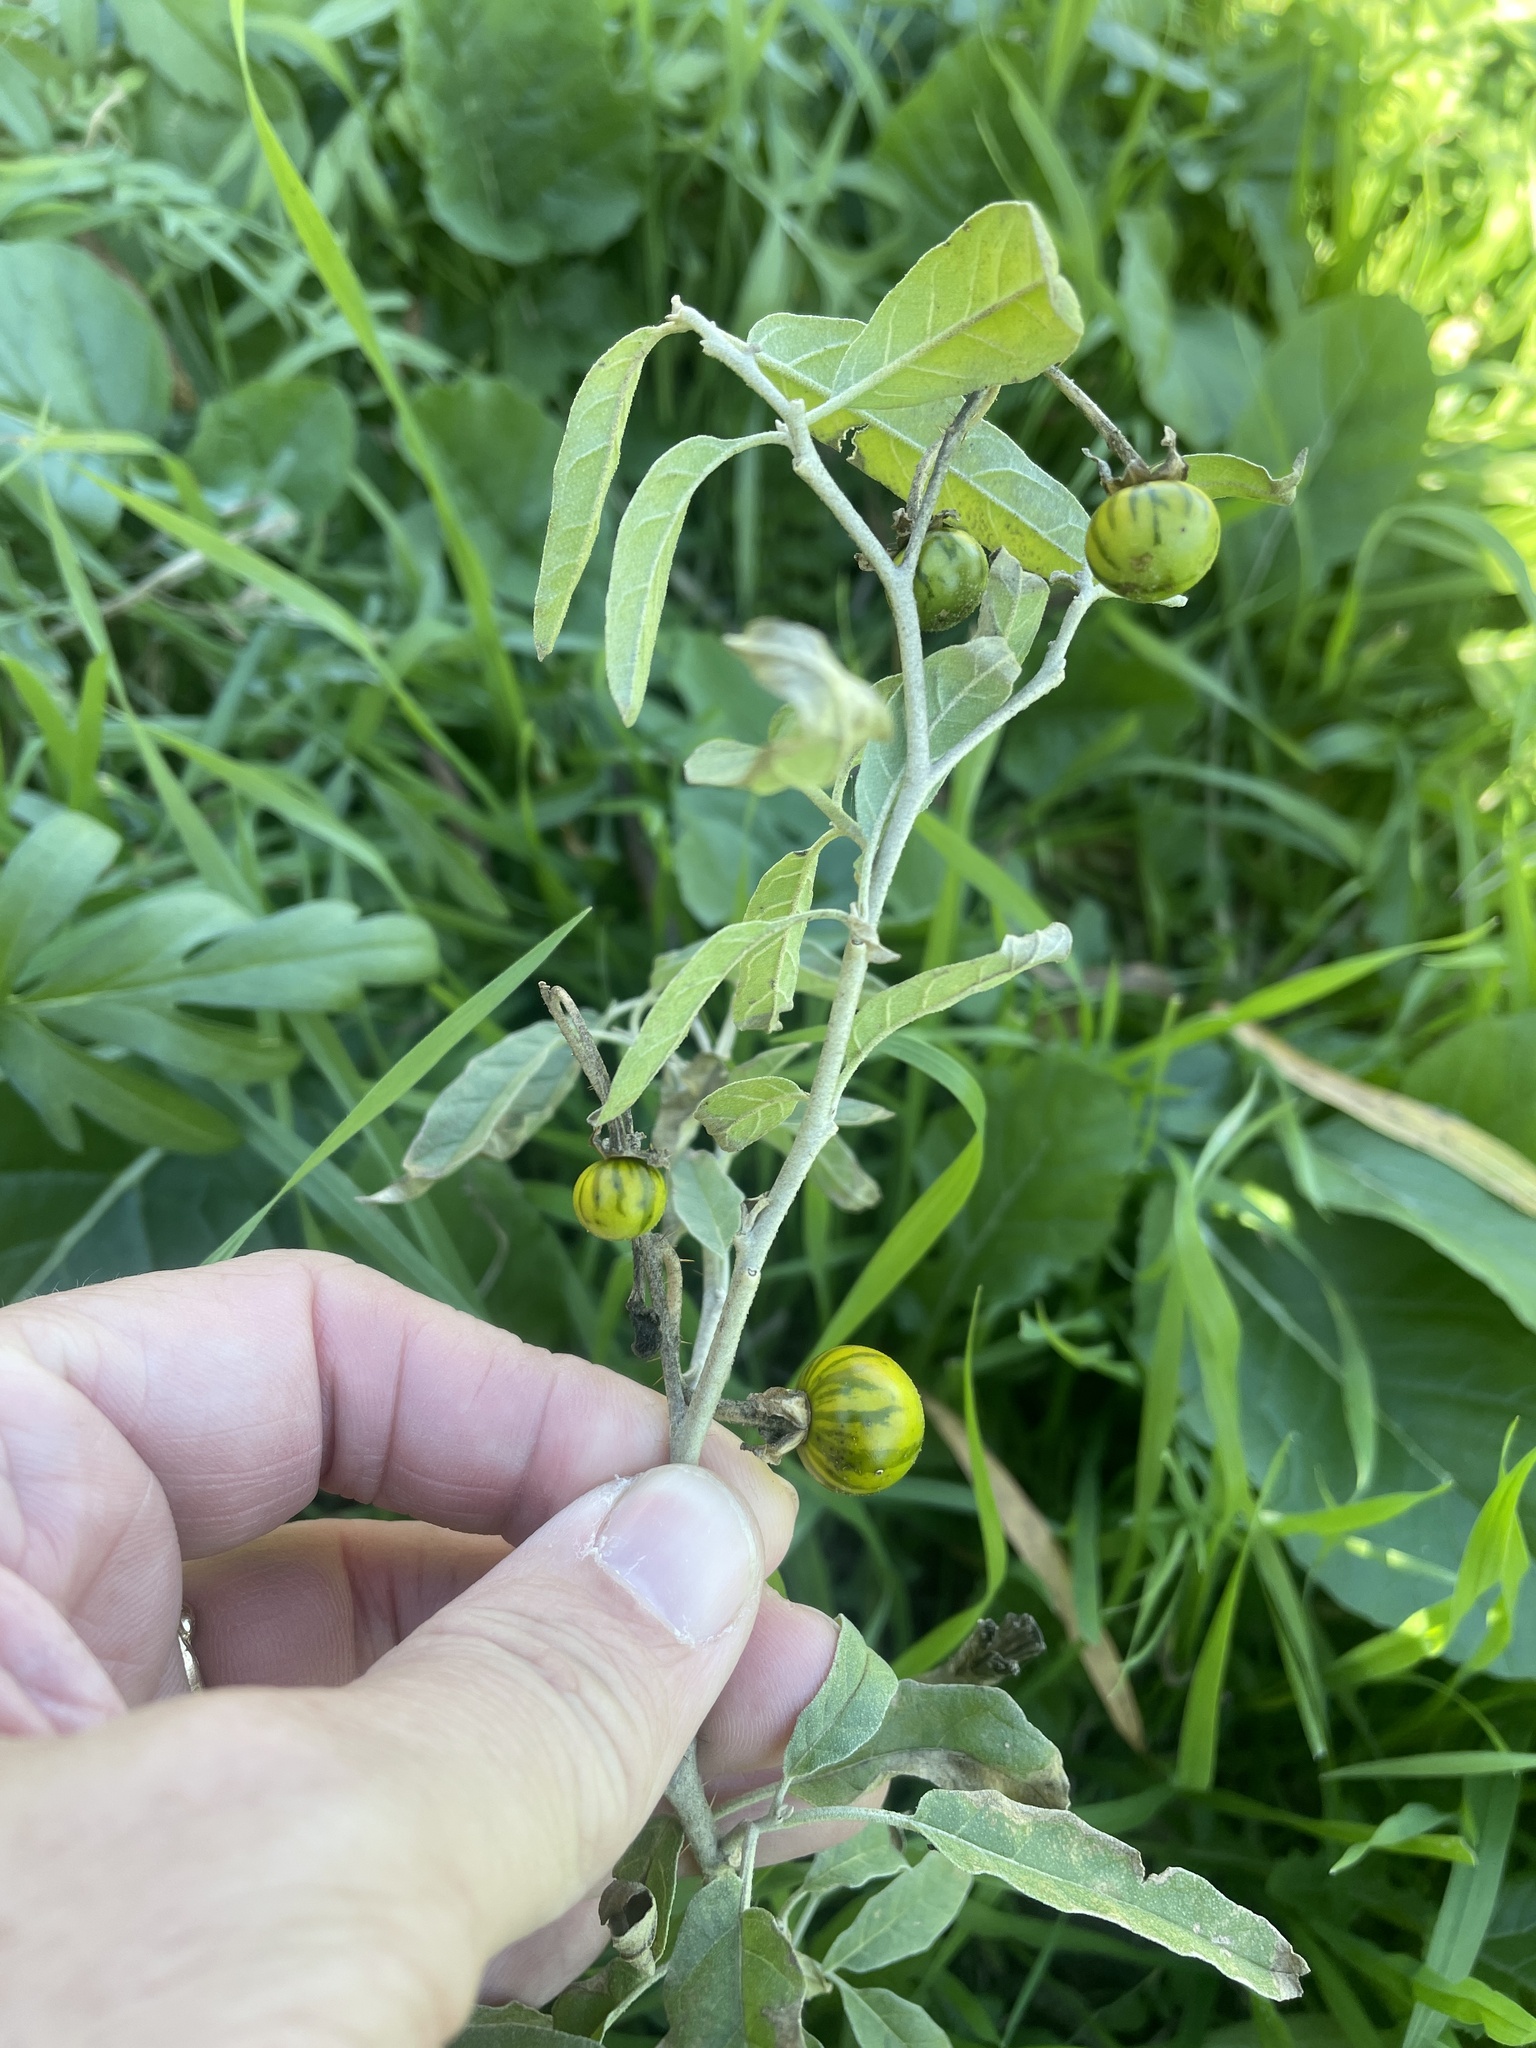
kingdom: Plantae
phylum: Tracheophyta
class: Magnoliopsida
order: Solanales
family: Solanaceae
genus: Solanum
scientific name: Solanum elaeagnifolium
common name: Silverleaf nightshade
